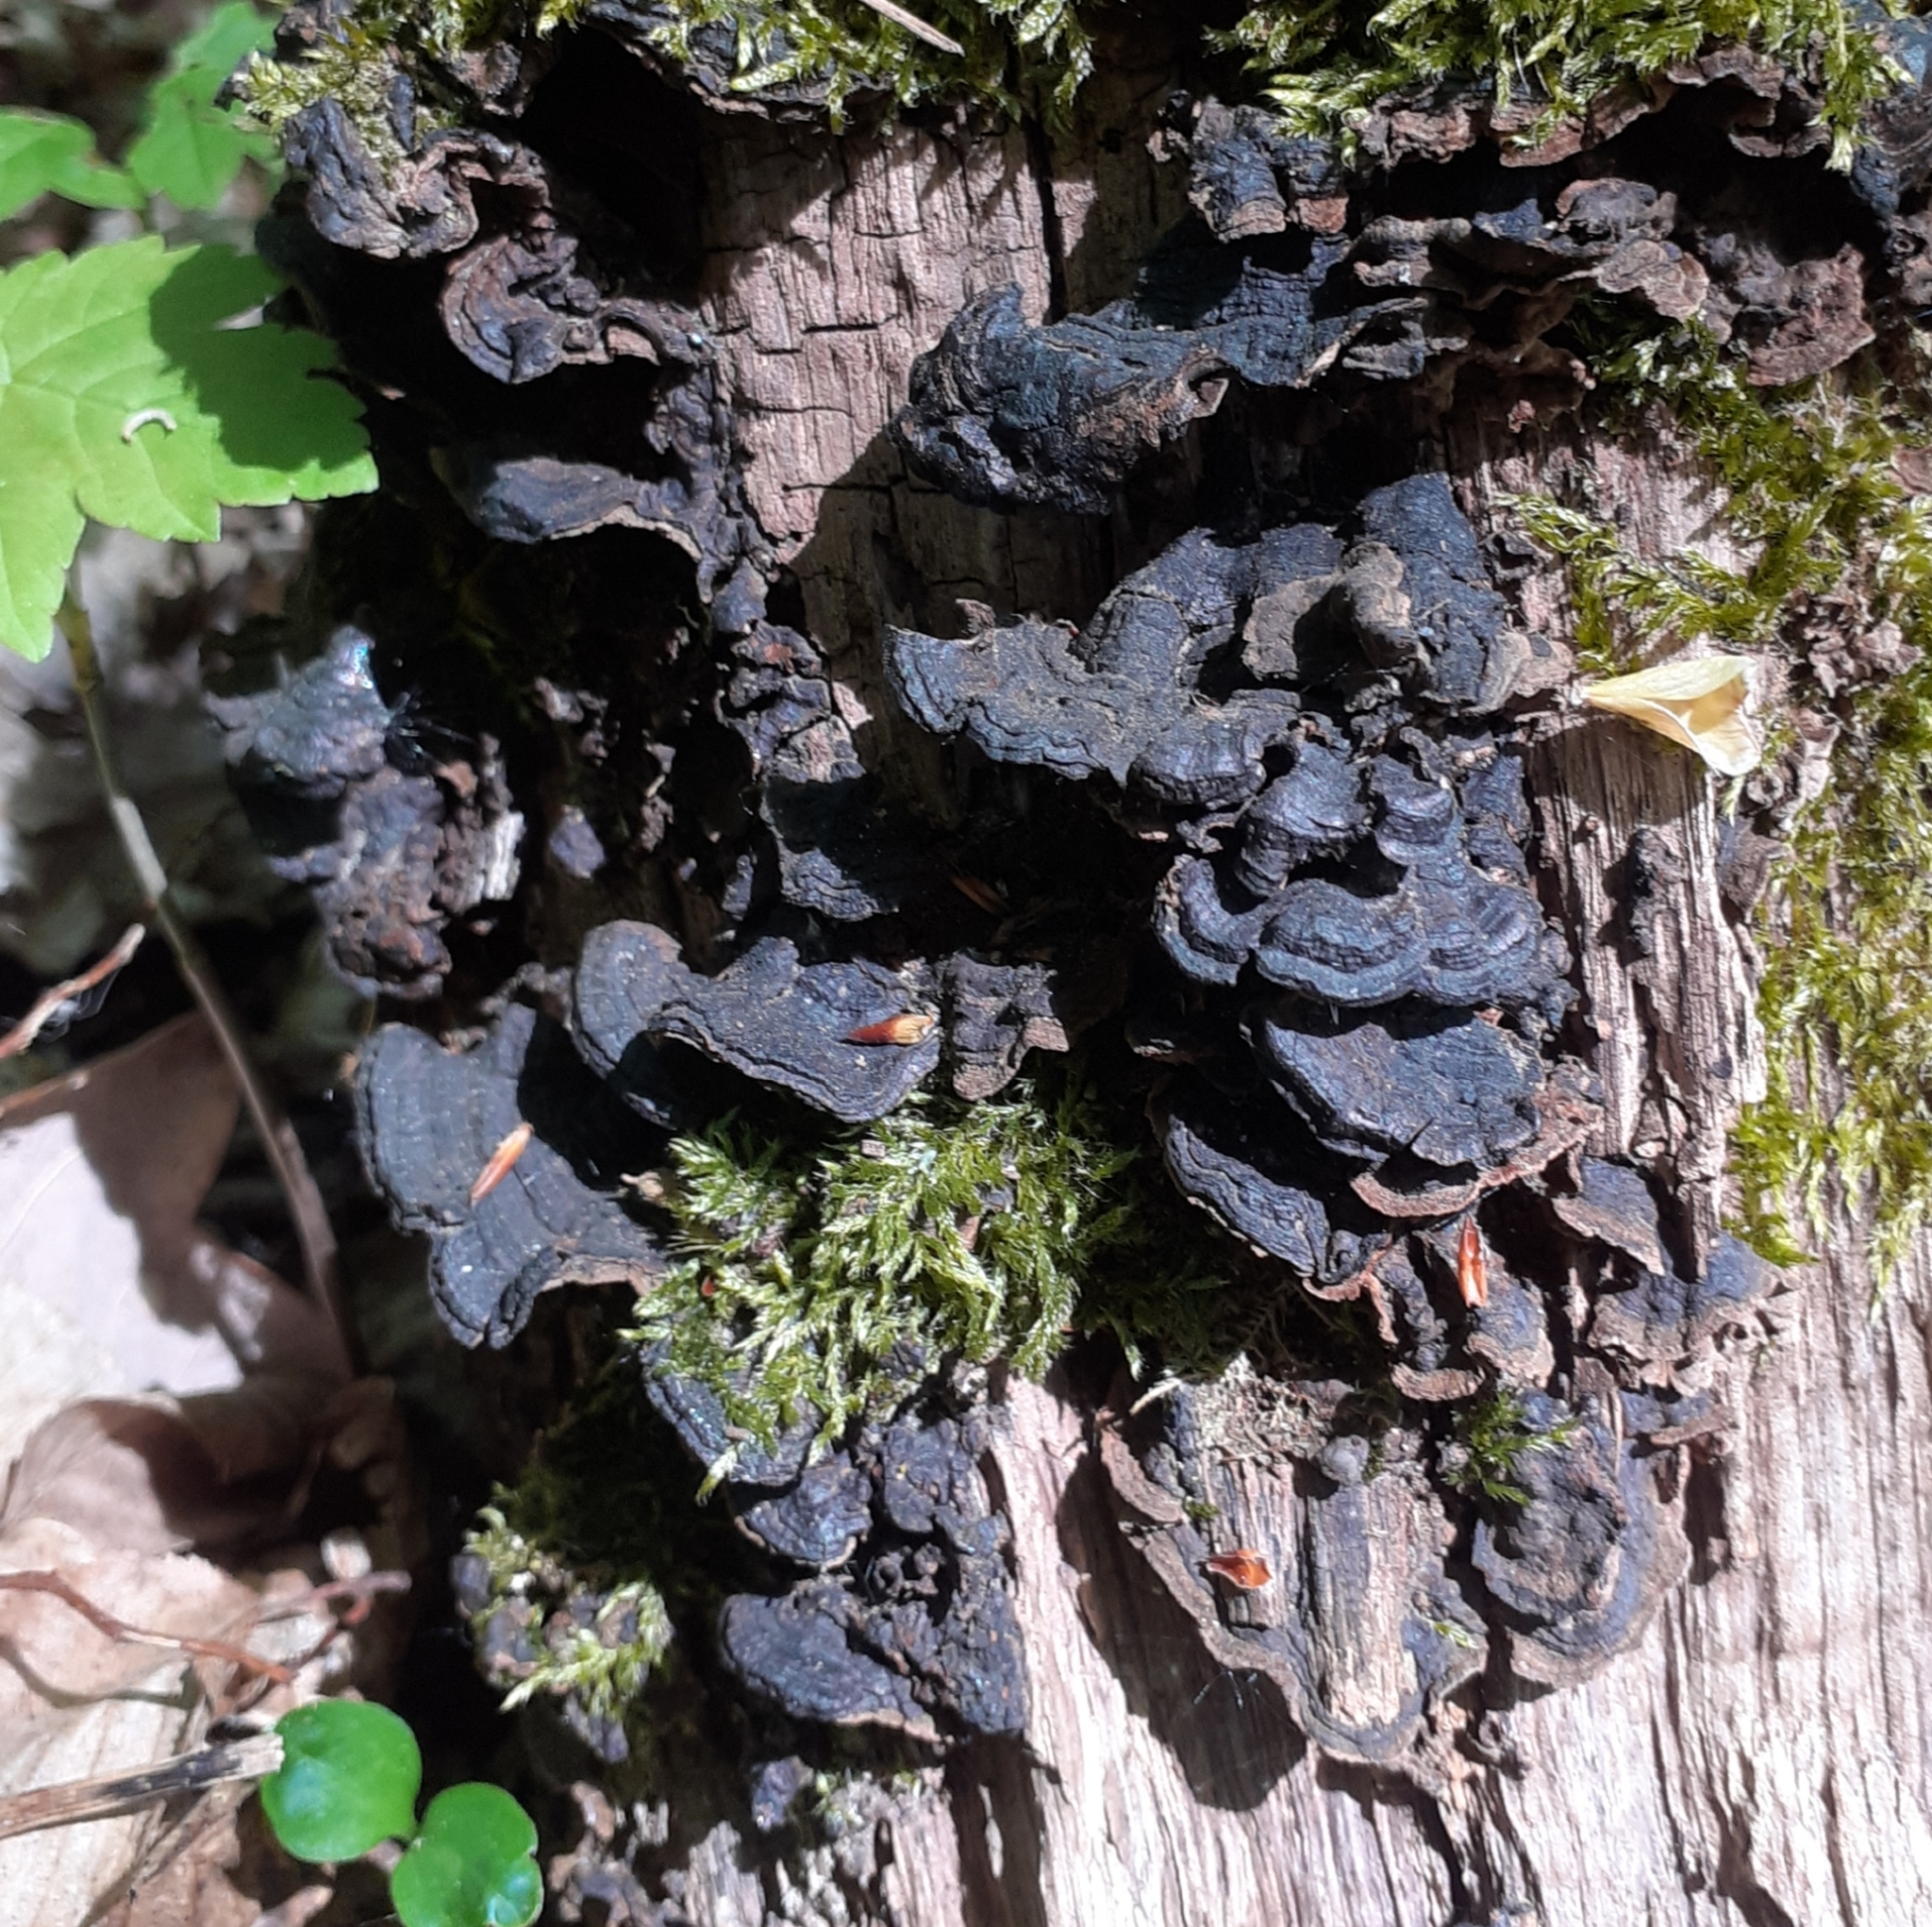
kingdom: Fungi
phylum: Basidiomycota
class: Agaricomycetes
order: Hymenochaetales
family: Hymenochaetaceae
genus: Hymenochaete
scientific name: Hymenochaete rubiginosa
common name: Oak curtain crust
